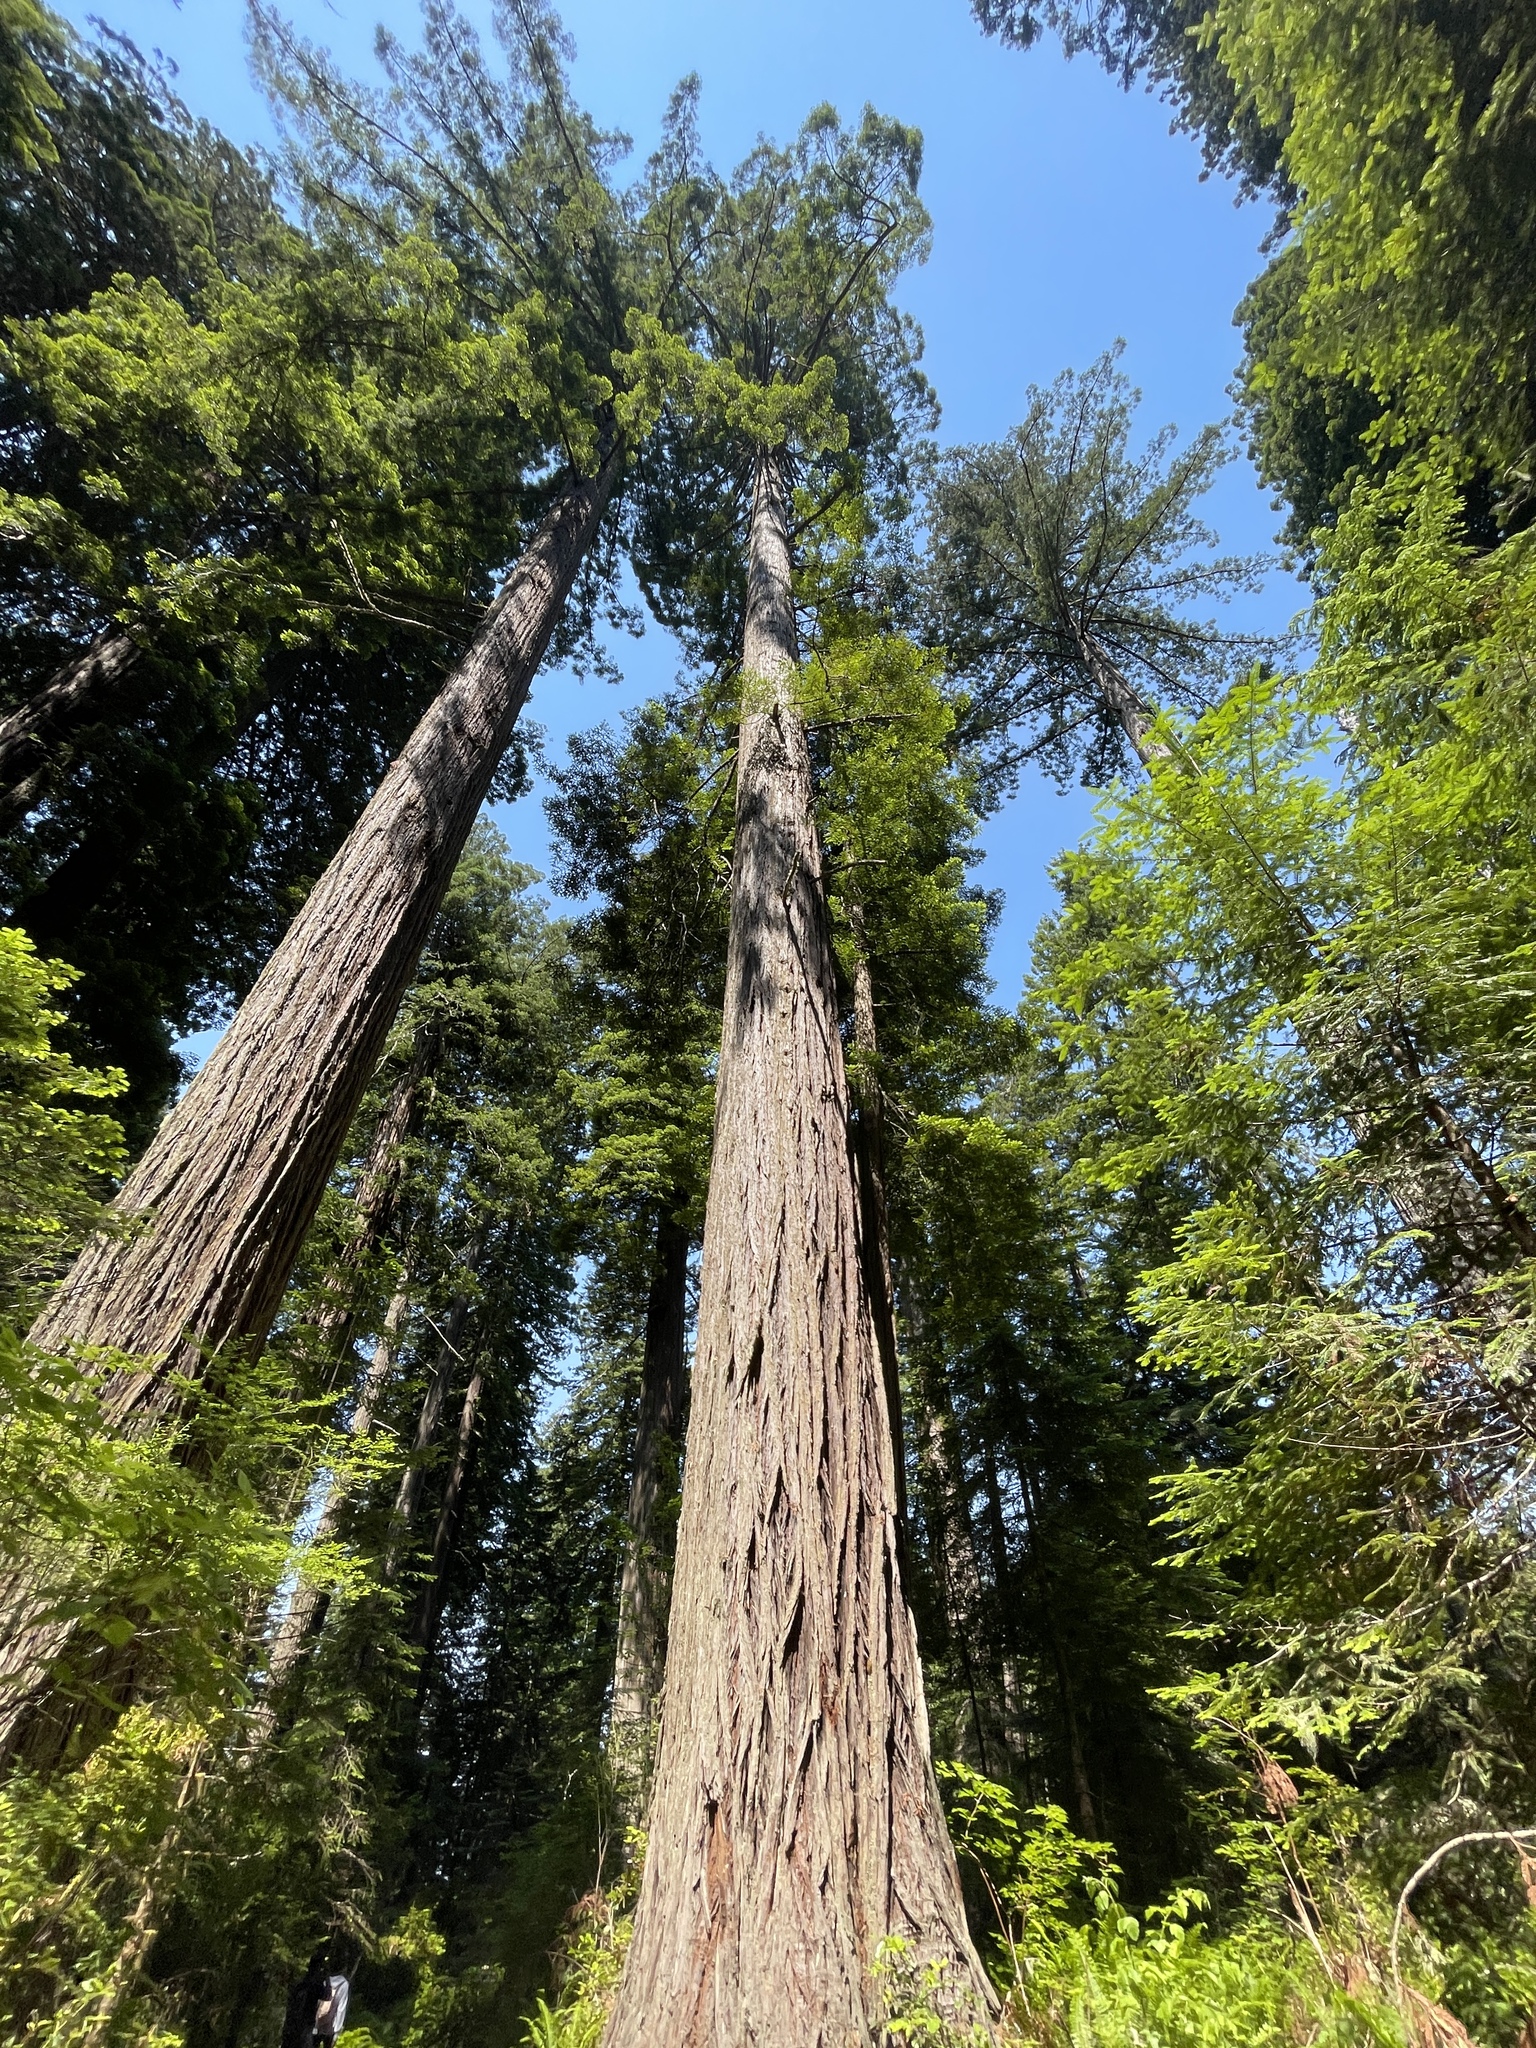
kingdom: Plantae
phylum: Tracheophyta
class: Pinopsida
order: Pinales
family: Cupressaceae
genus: Sequoia
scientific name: Sequoia sempervirens
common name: Coast redwood
